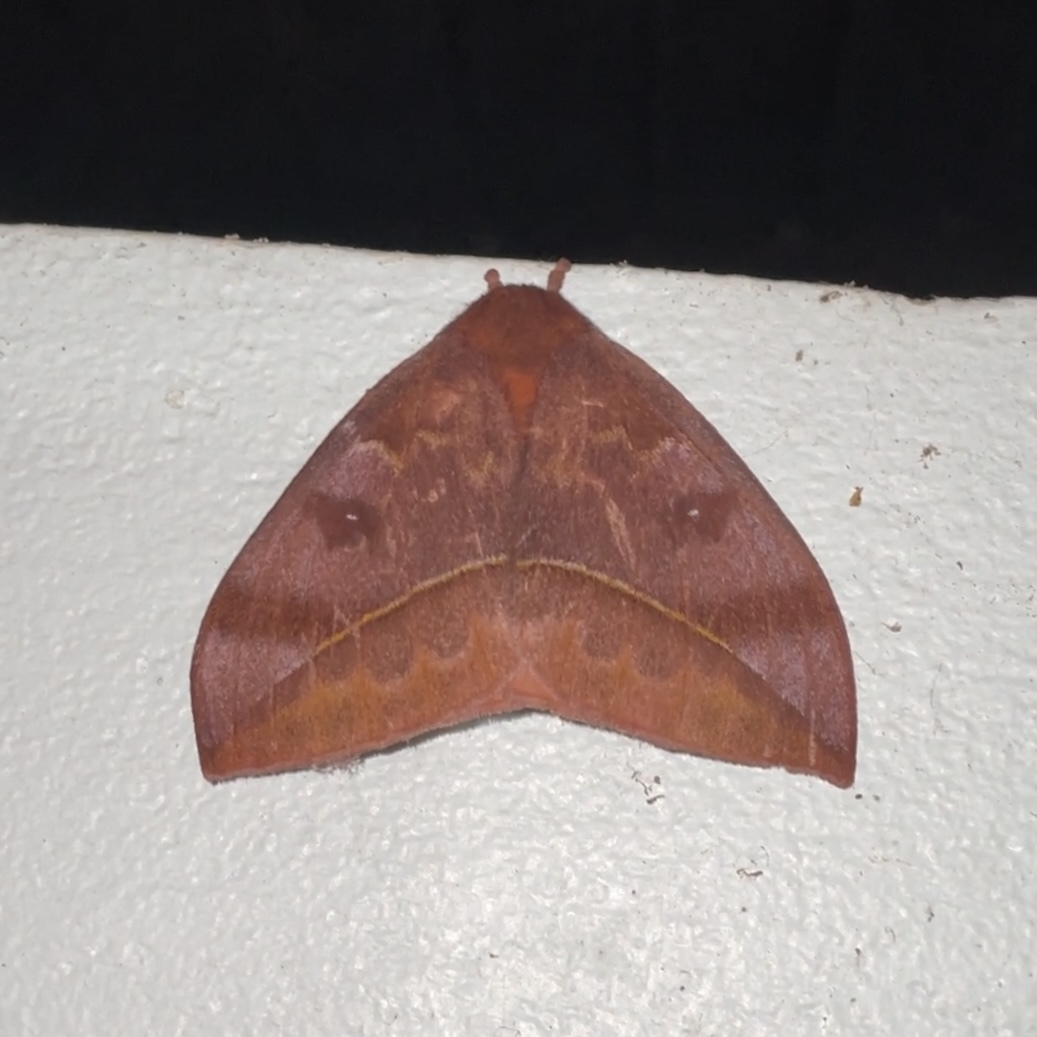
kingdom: Animalia
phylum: Arthropoda
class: Insecta
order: Lepidoptera
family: Saturniidae
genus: Automeris
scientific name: Automeris jucunda
